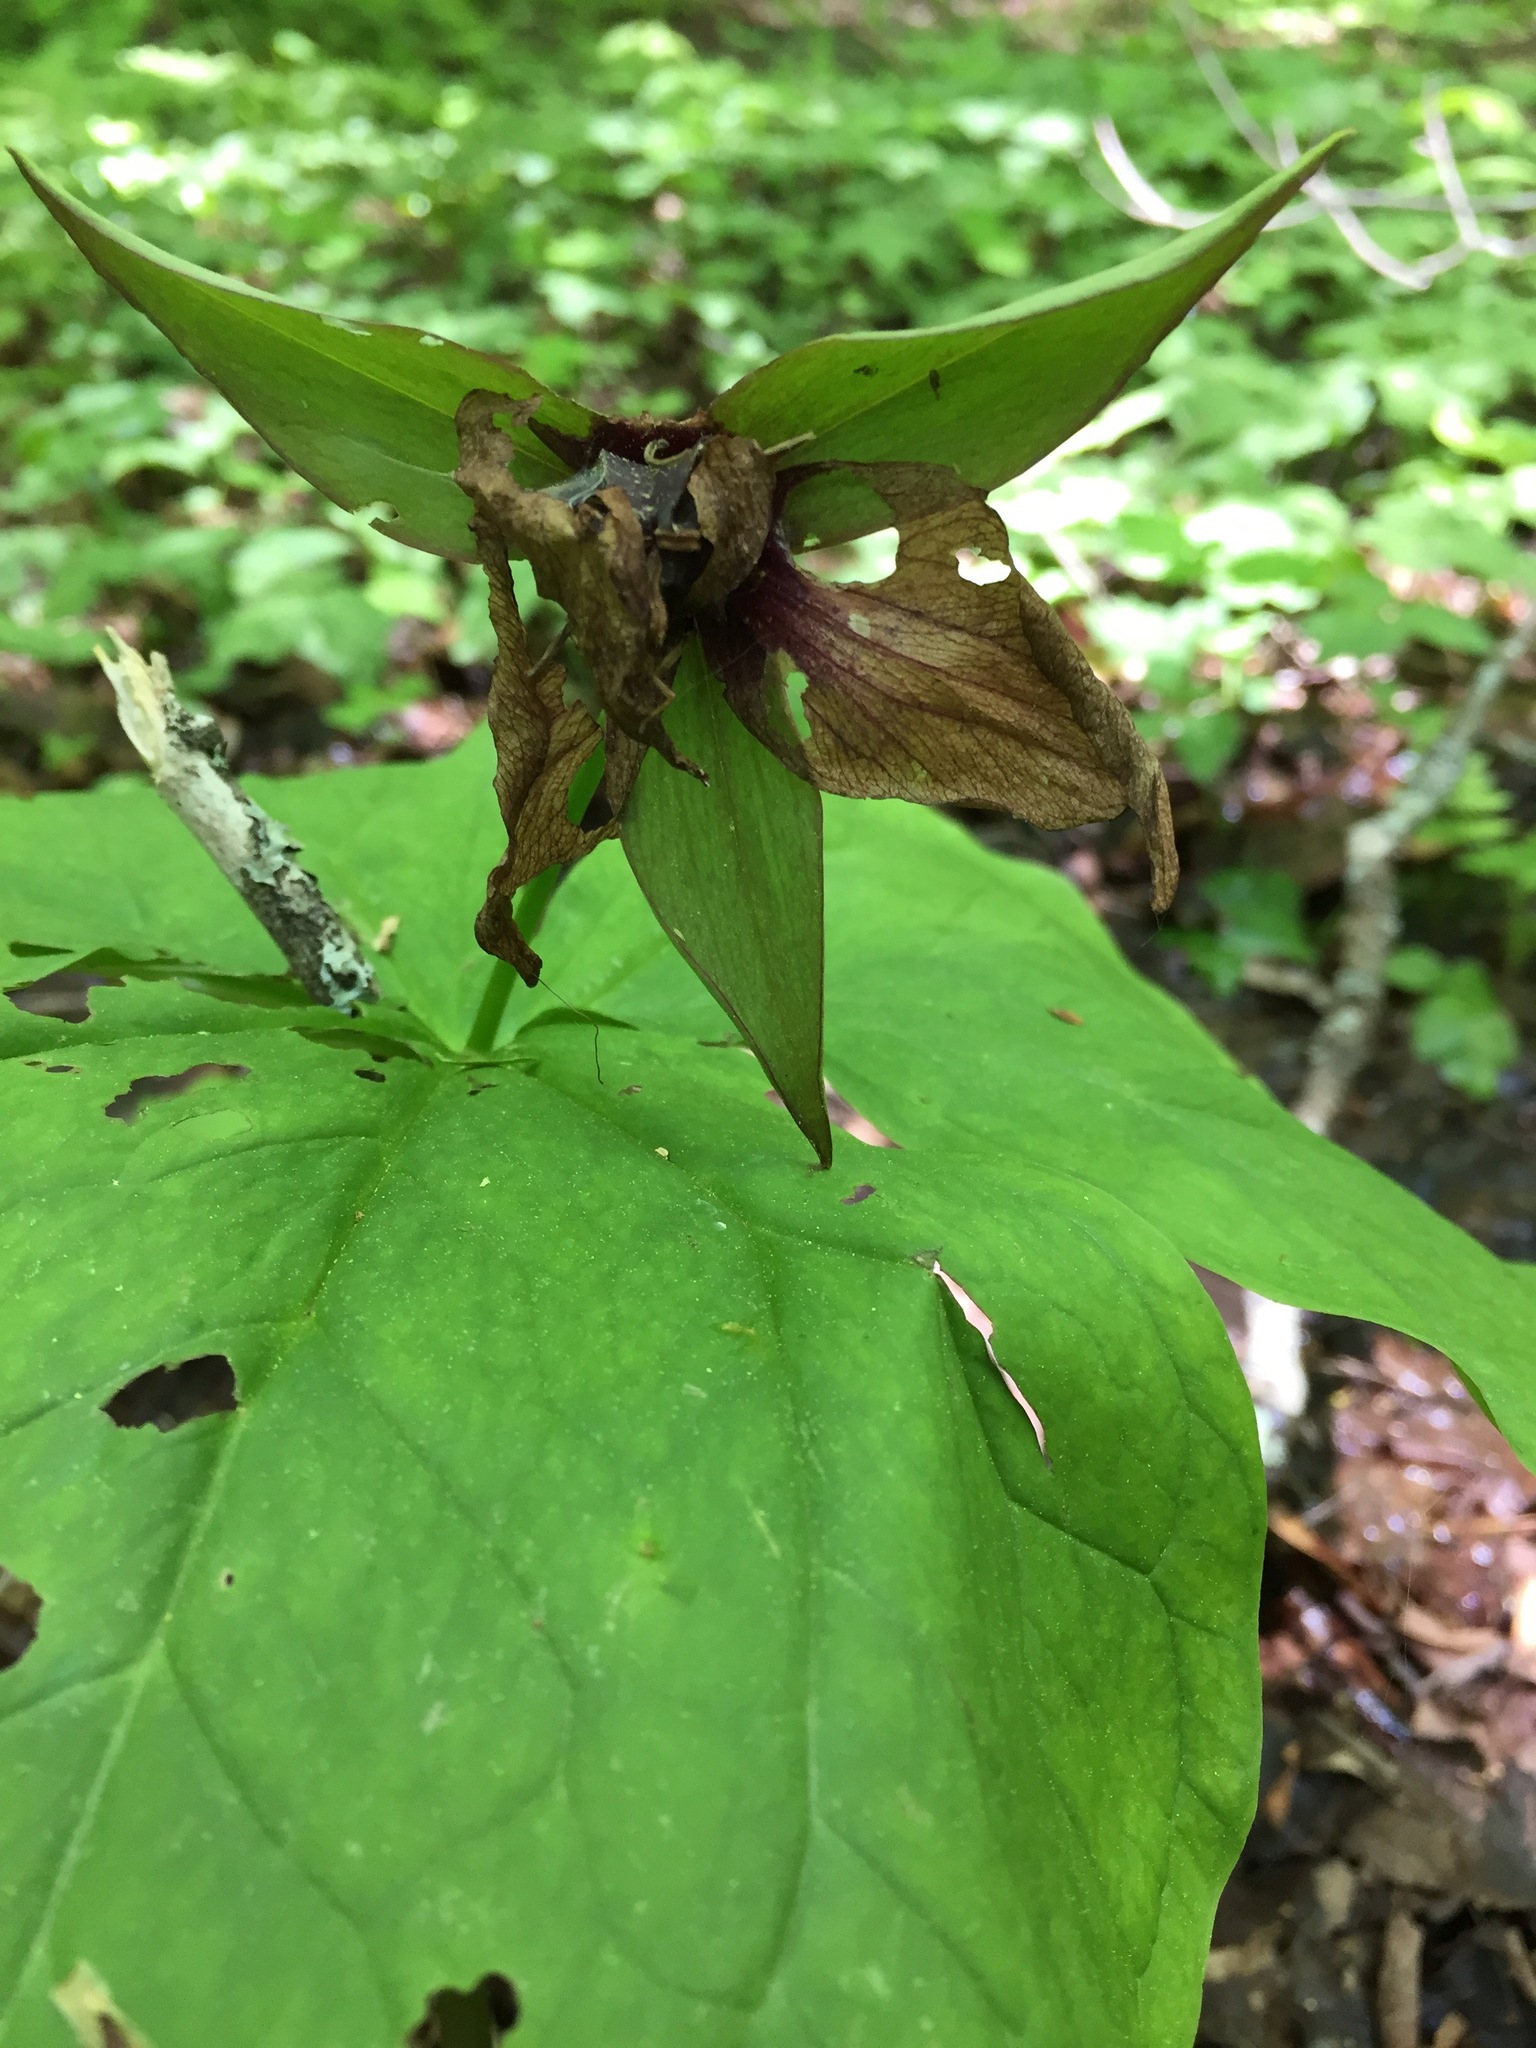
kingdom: Plantae
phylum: Tracheophyta
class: Liliopsida
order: Liliales
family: Melanthiaceae
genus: Trillium
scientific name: Trillium erectum
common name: Purple trillium
